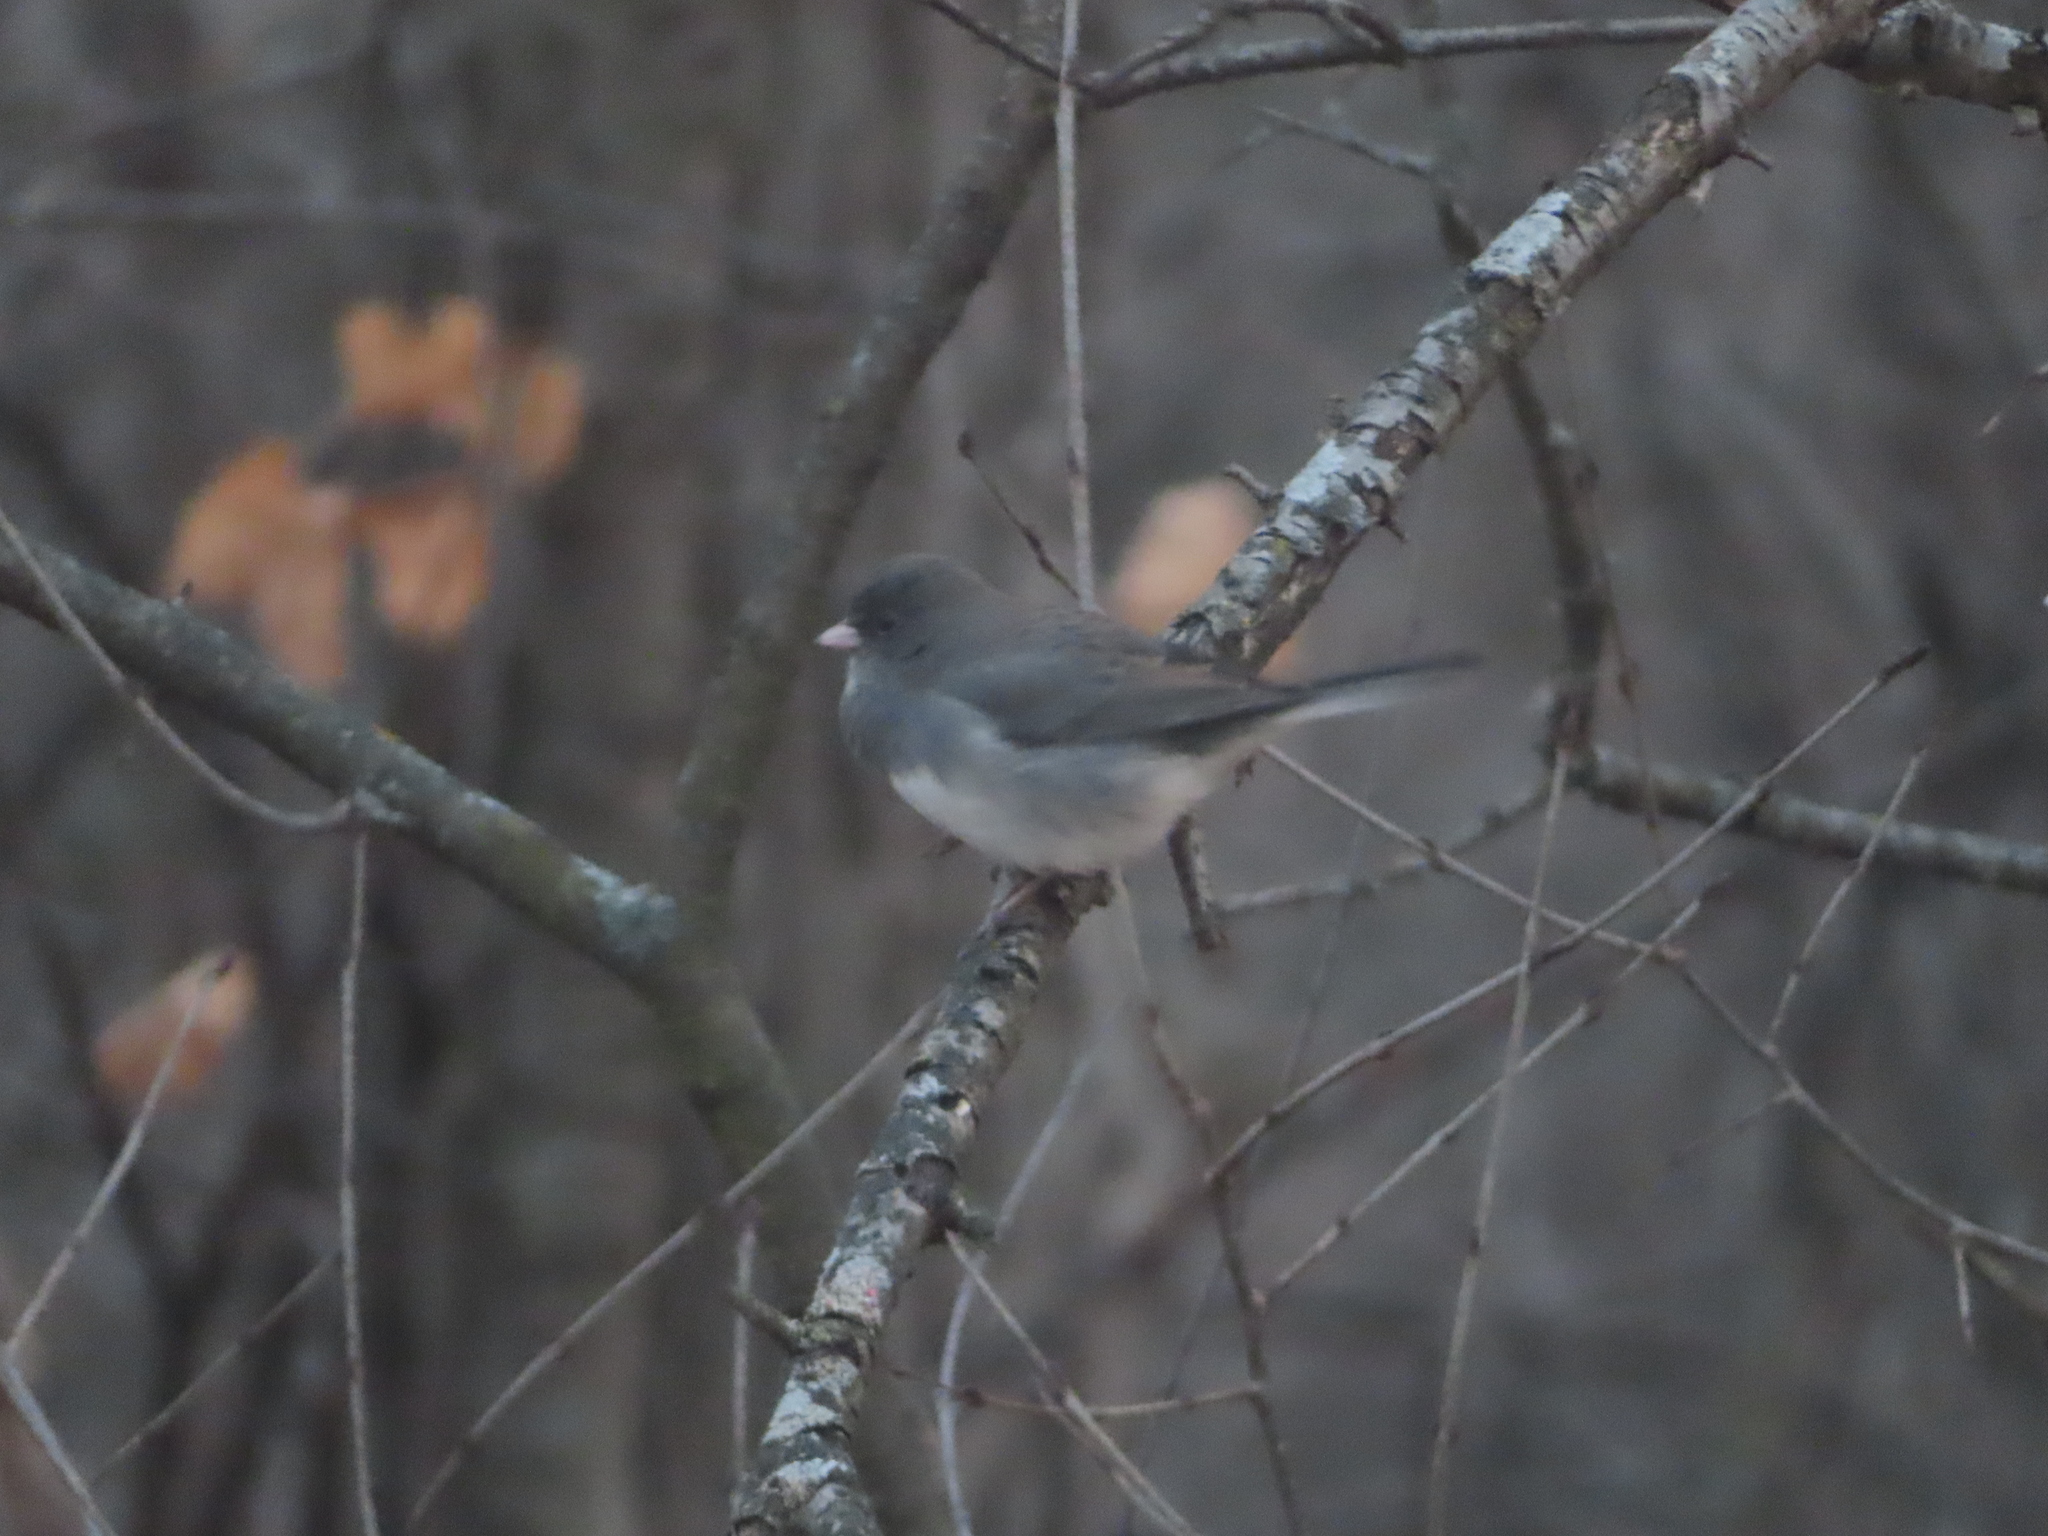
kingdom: Animalia
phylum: Chordata
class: Aves
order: Passeriformes
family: Passerellidae
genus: Junco
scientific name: Junco hyemalis
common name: Dark-eyed junco
